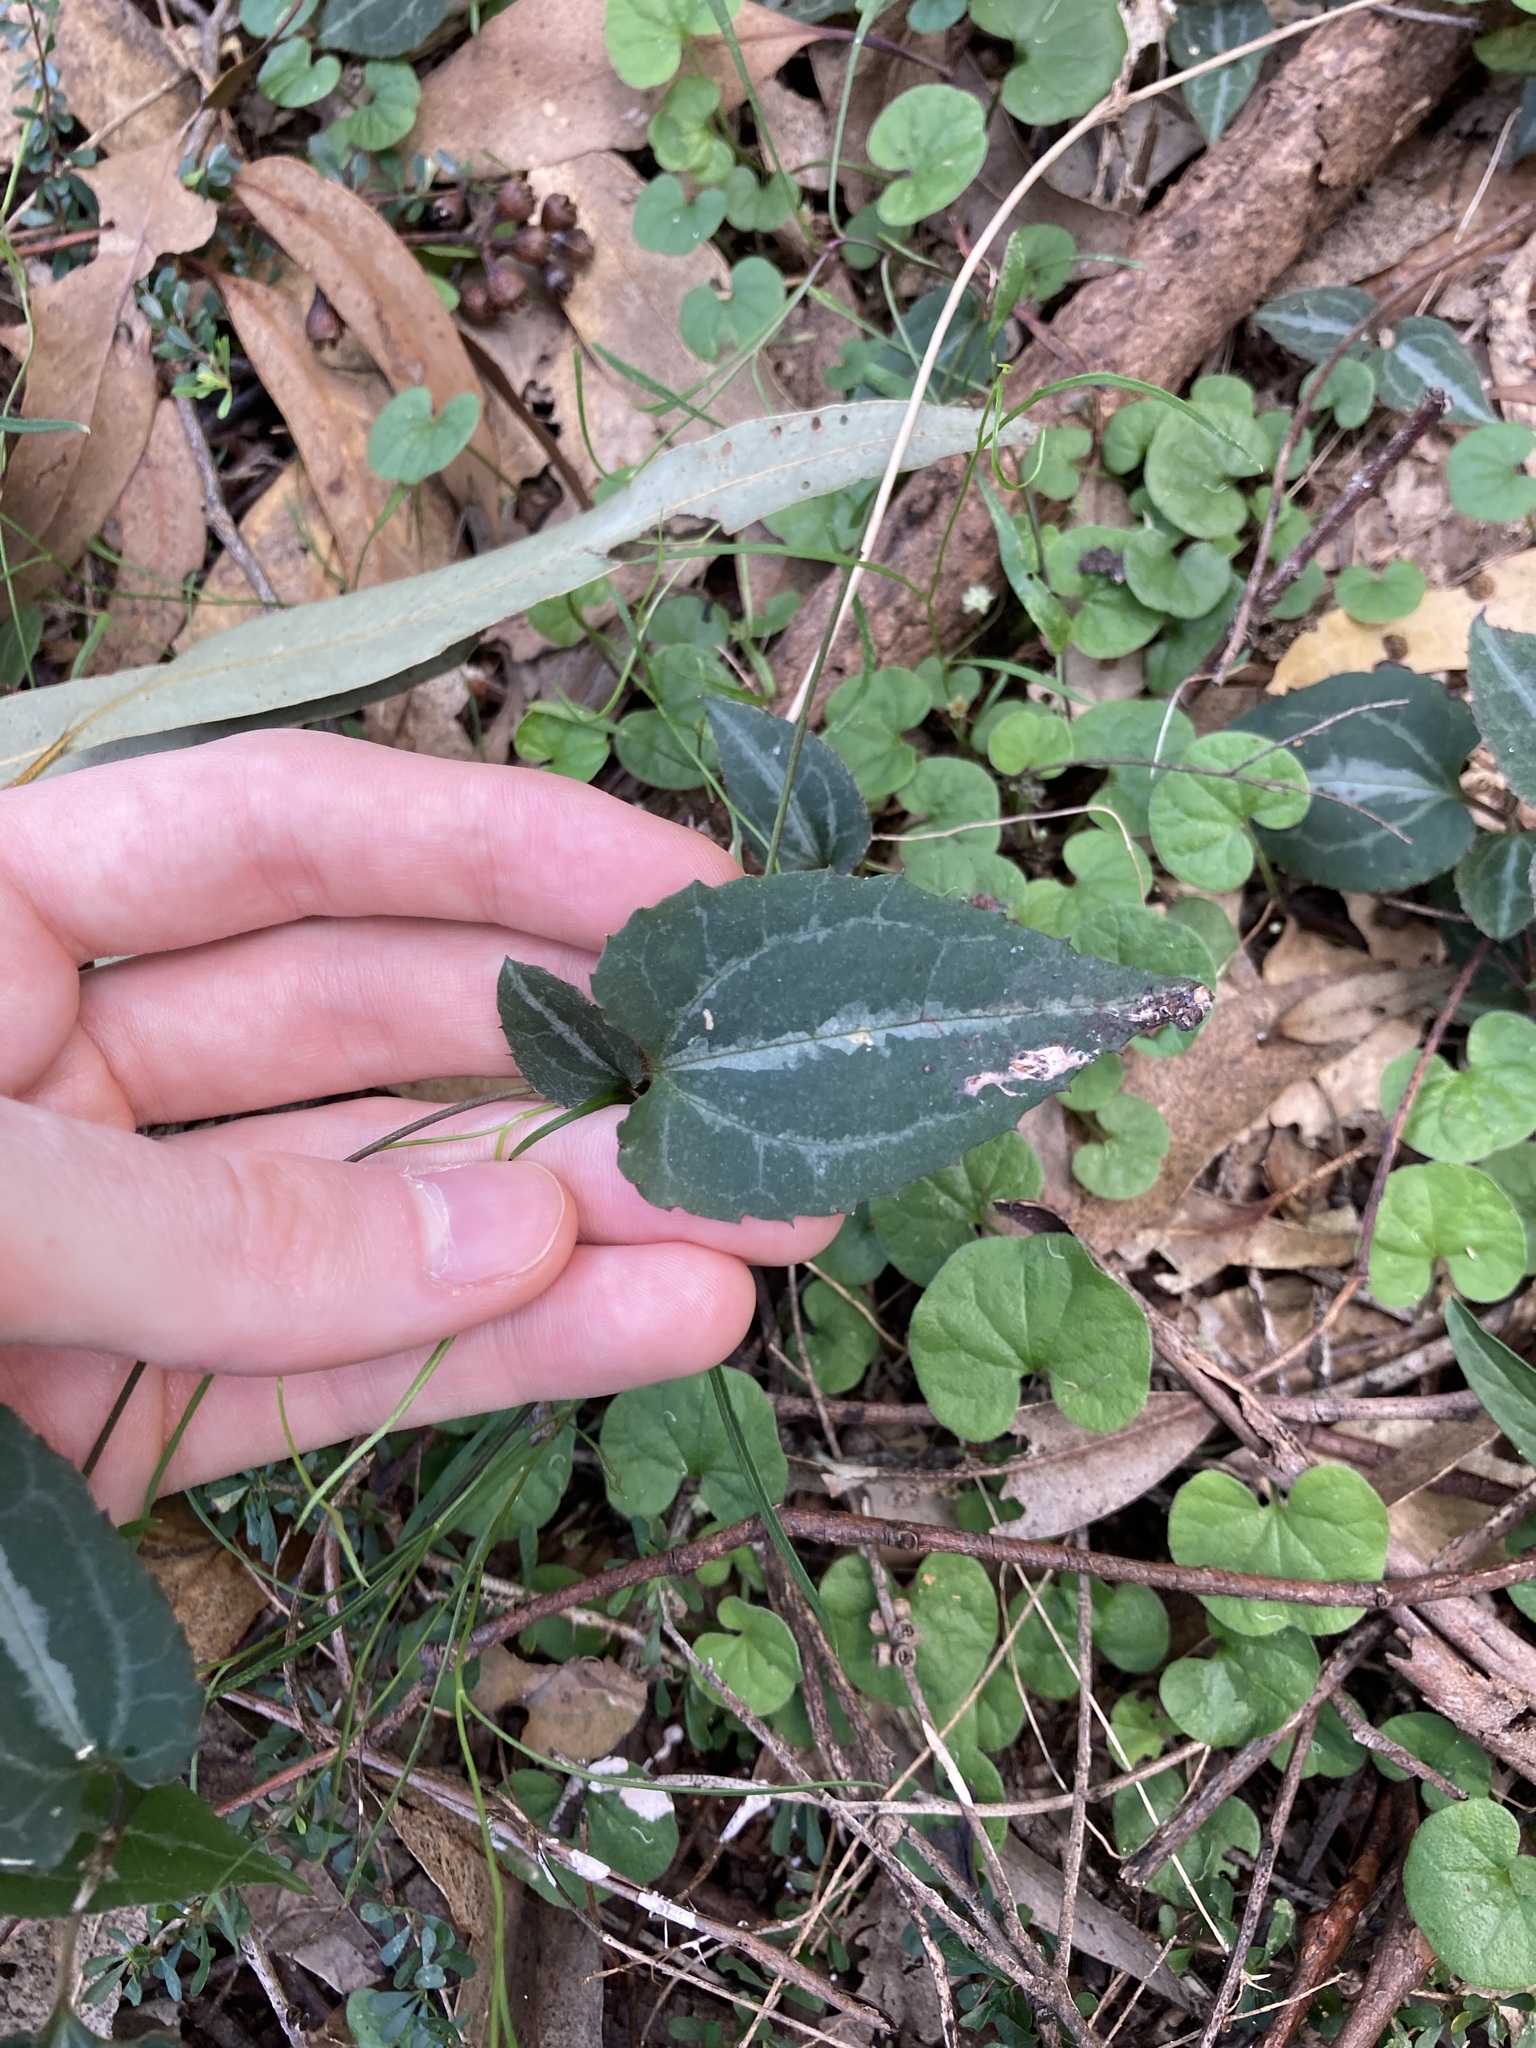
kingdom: Plantae
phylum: Tracheophyta
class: Magnoliopsida
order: Ranunculales
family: Ranunculaceae
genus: Clematis
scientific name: Clematis aristata
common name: Mountain clematis
